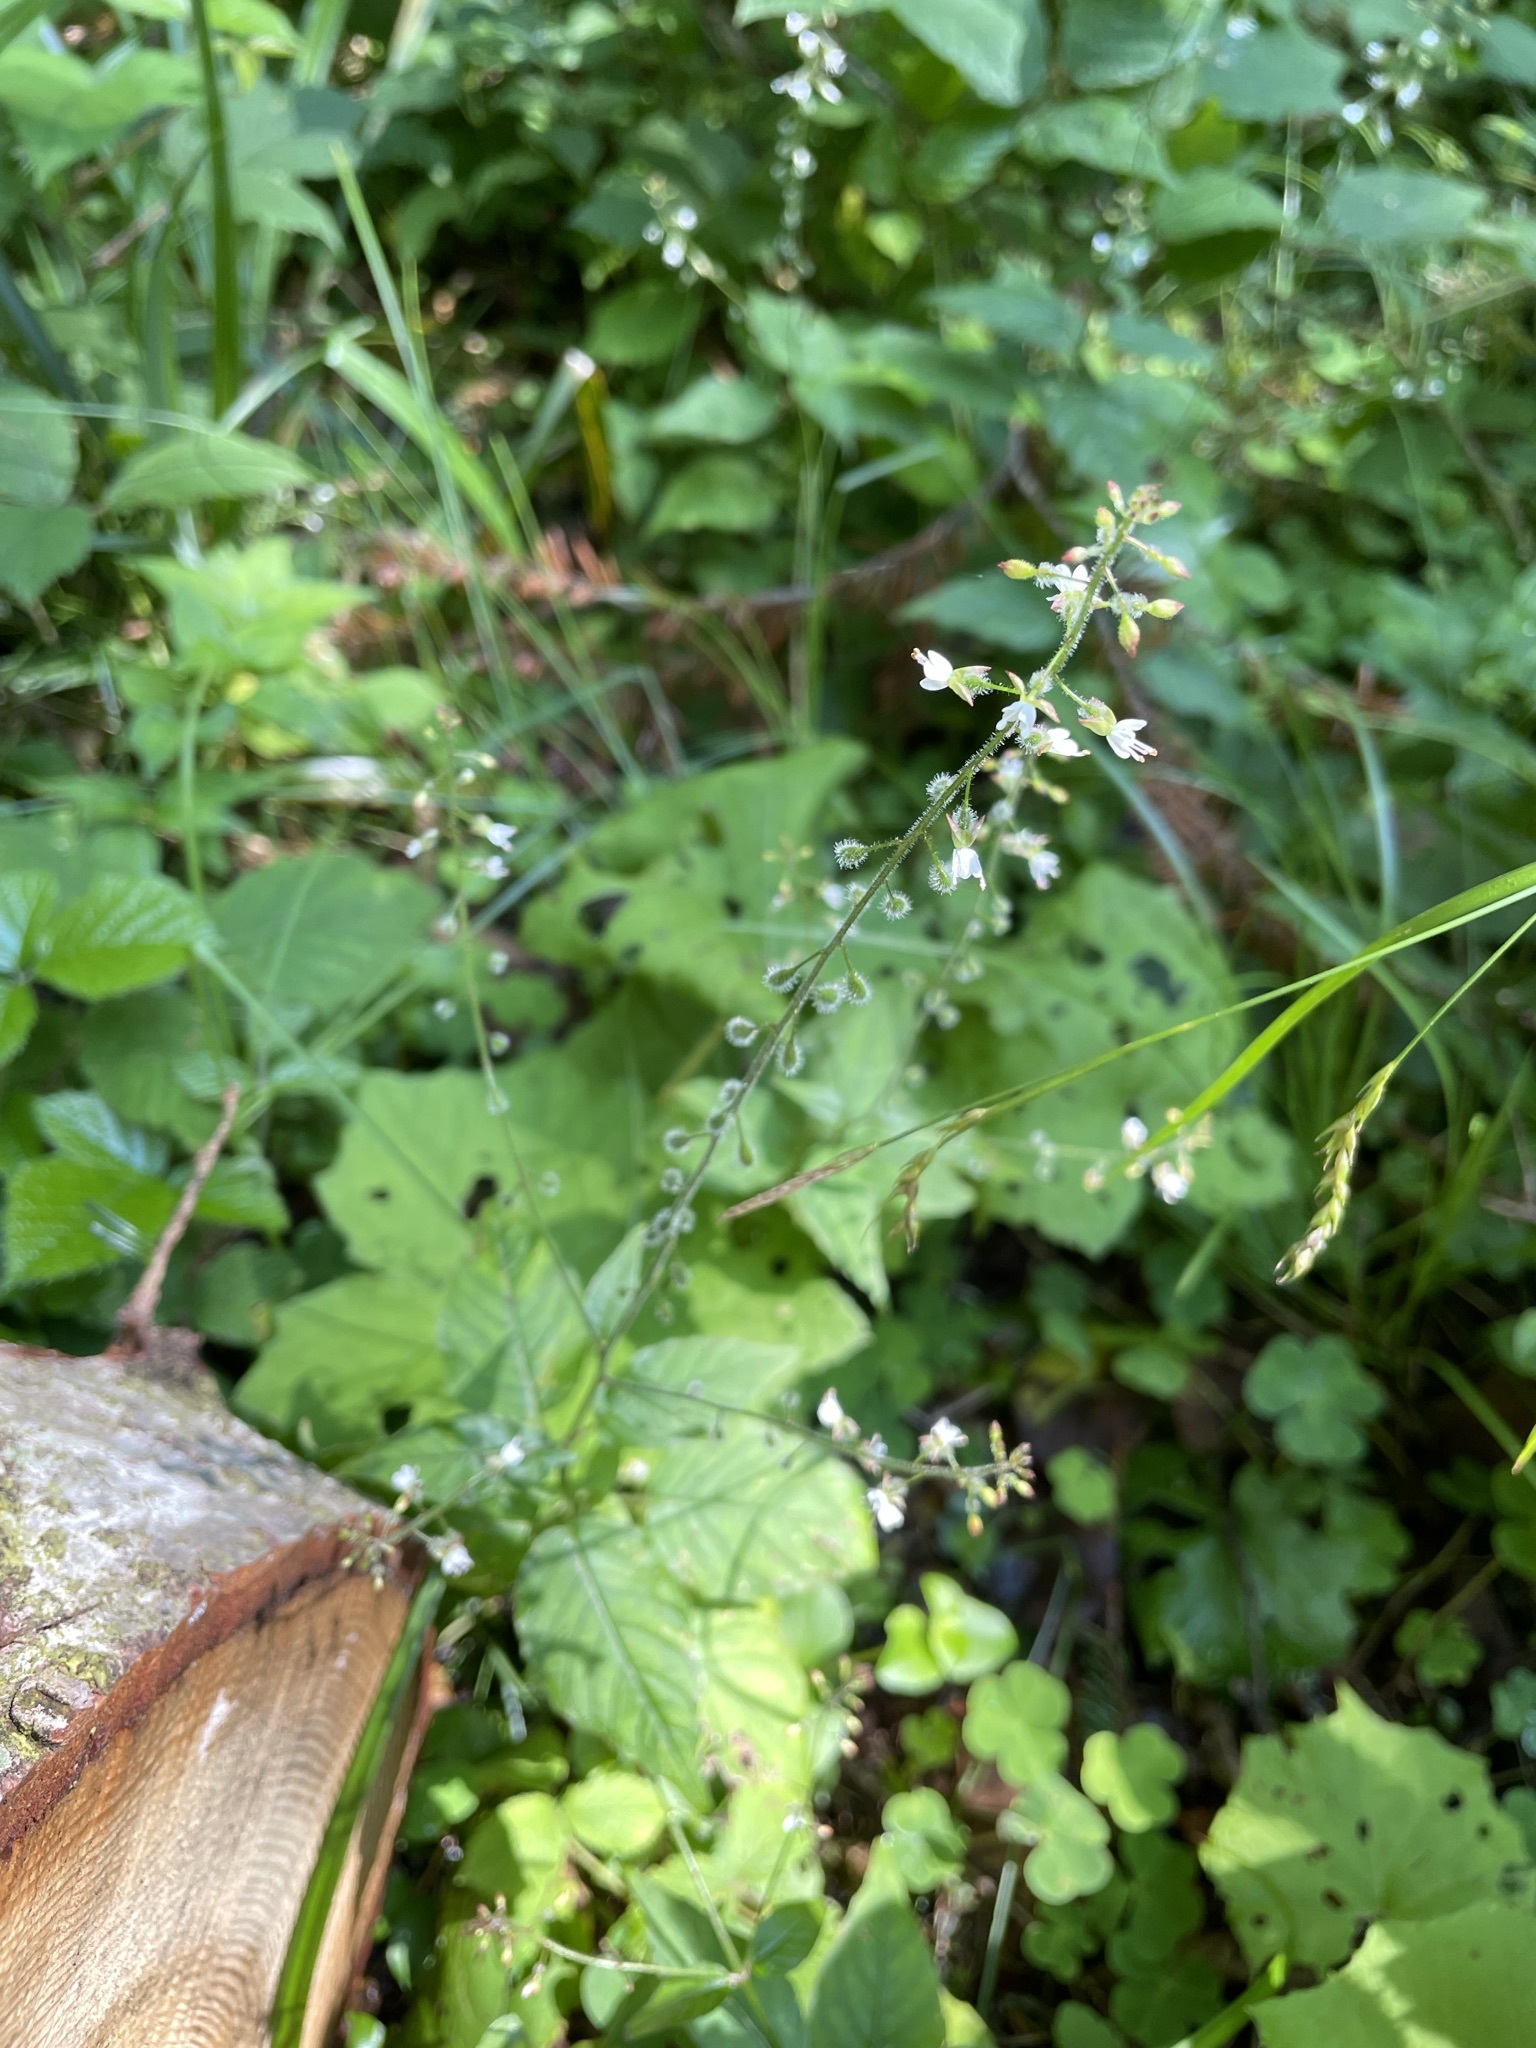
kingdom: Plantae
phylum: Tracheophyta
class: Magnoliopsida
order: Myrtales
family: Onagraceae
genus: Circaea
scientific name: Circaea lutetiana
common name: Enchanter's-nightshade
